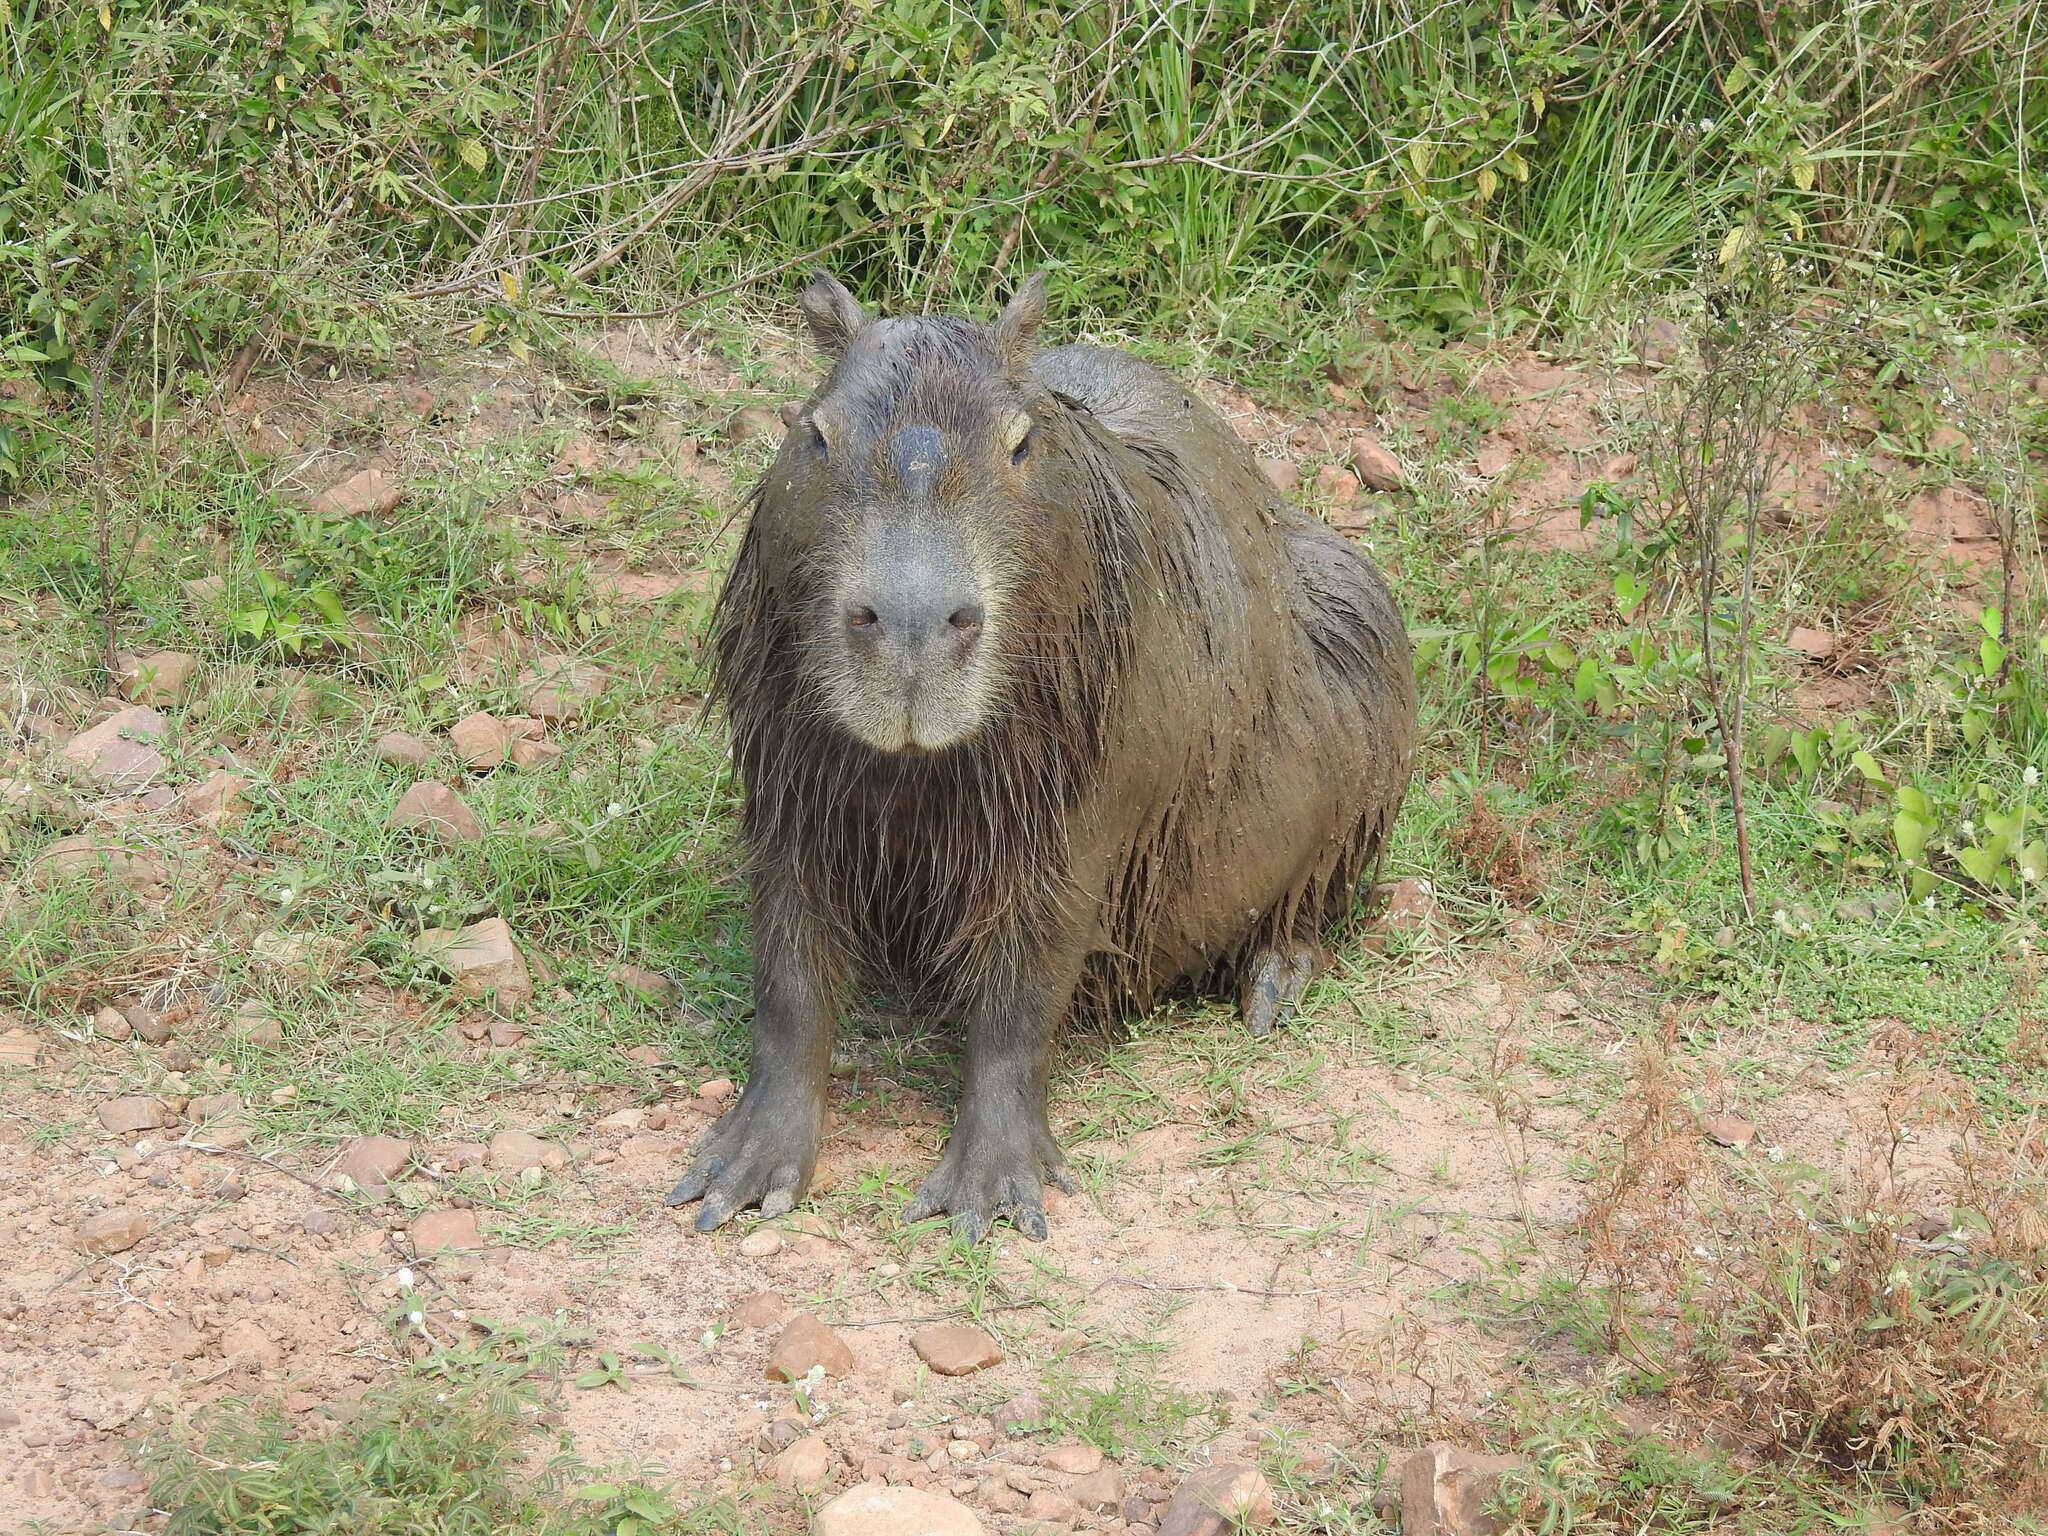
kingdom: Animalia
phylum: Chordata
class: Mammalia
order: Rodentia
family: Caviidae
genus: Hydrochoerus
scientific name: Hydrochoerus hydrochaeris
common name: Capybara
